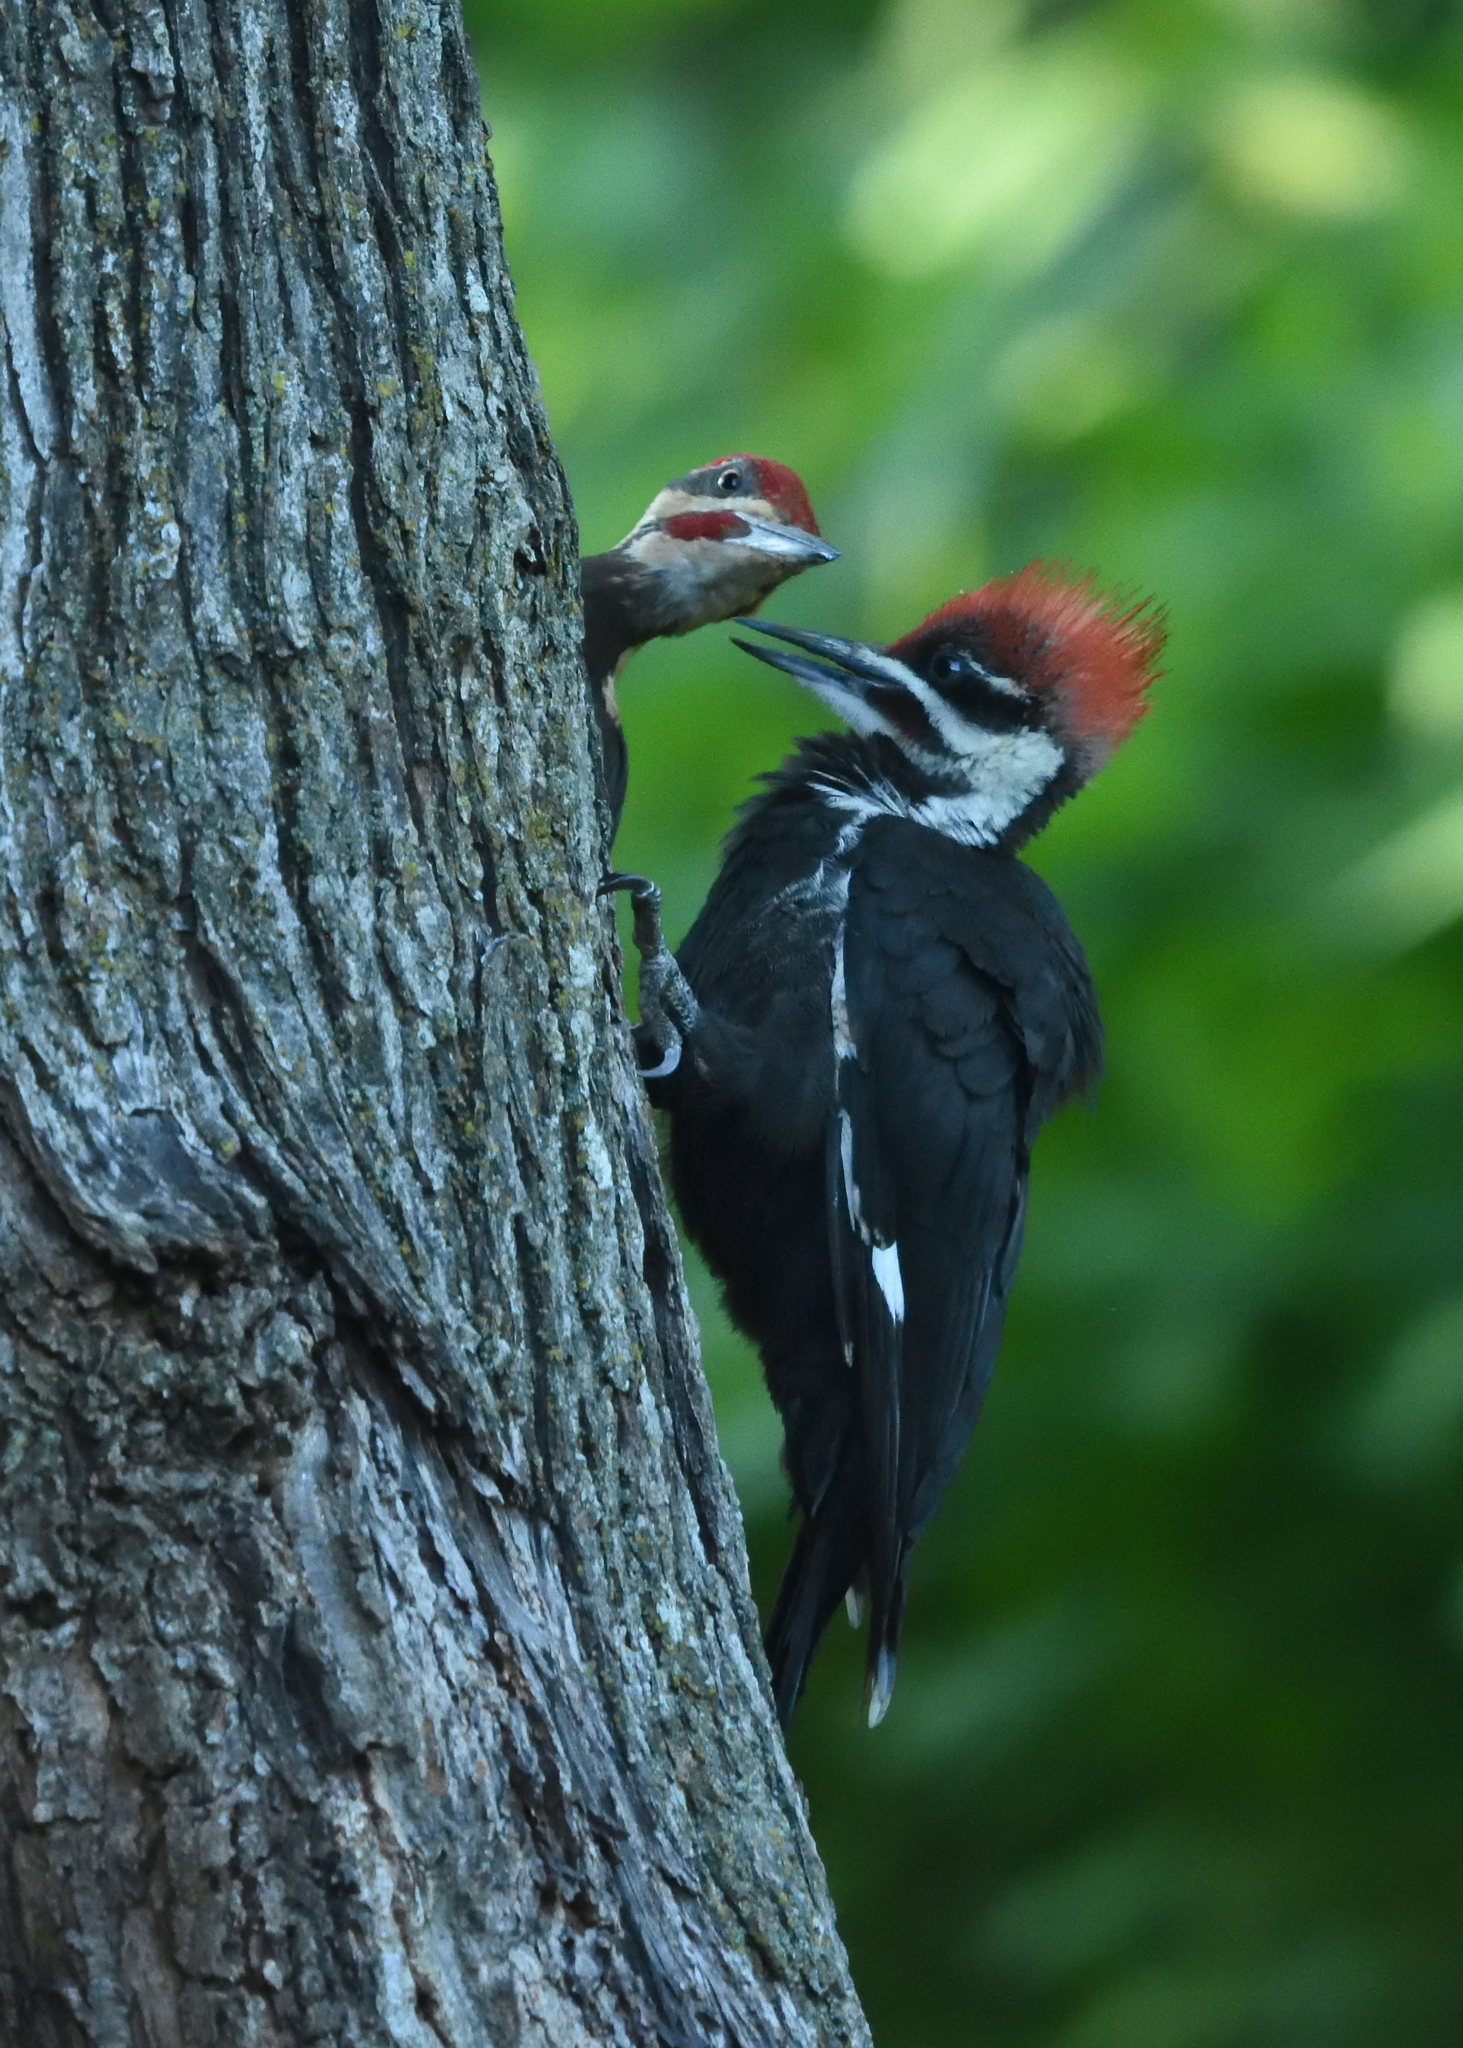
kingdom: Animalia
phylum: Chordata
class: Aves
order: Piciformes
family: Picidae
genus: Dryocopus
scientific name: Dryocopus pileatus
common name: Pileated woodpecker
